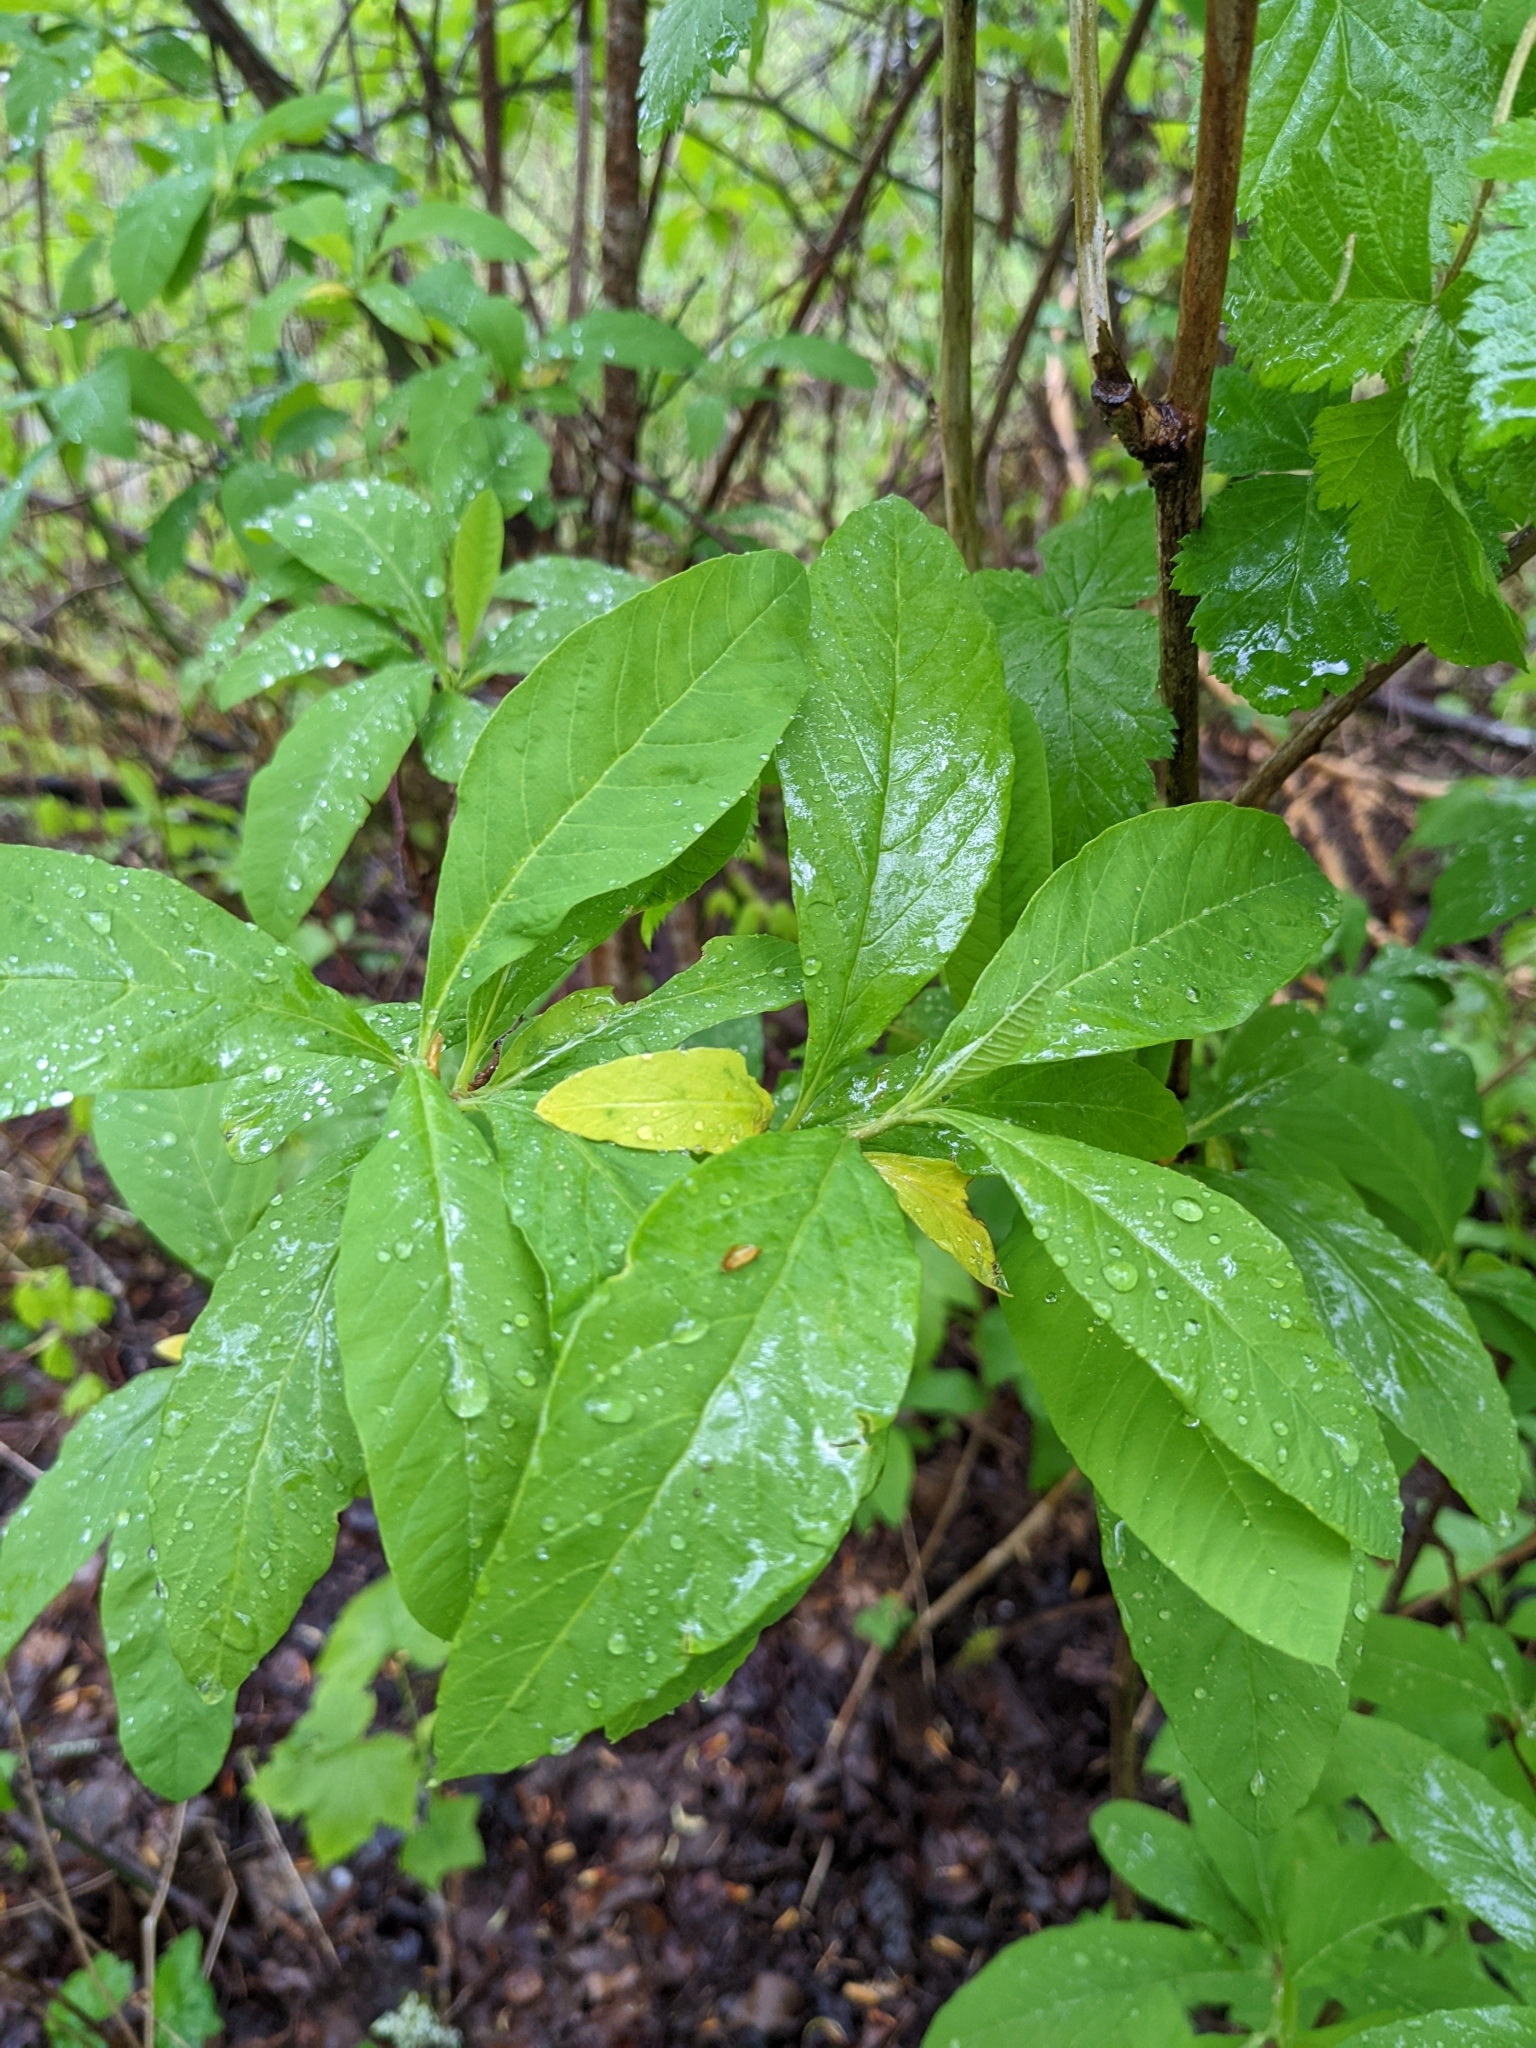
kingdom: Plantae
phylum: Tracheophyta
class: Magnoliopsida
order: Rosales
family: Rosaceae
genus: Oemleria
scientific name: Oemleria cerasiformis
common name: Osoberry
